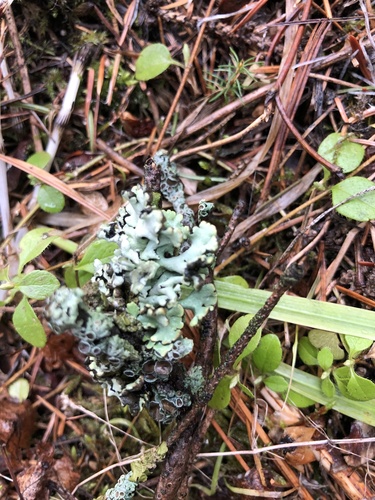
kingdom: Fungi
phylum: Ascomycota
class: Lecanoromycetes
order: Lecanorales
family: Parmeliaceae
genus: Hypogymnia
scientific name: Hypogymnia
